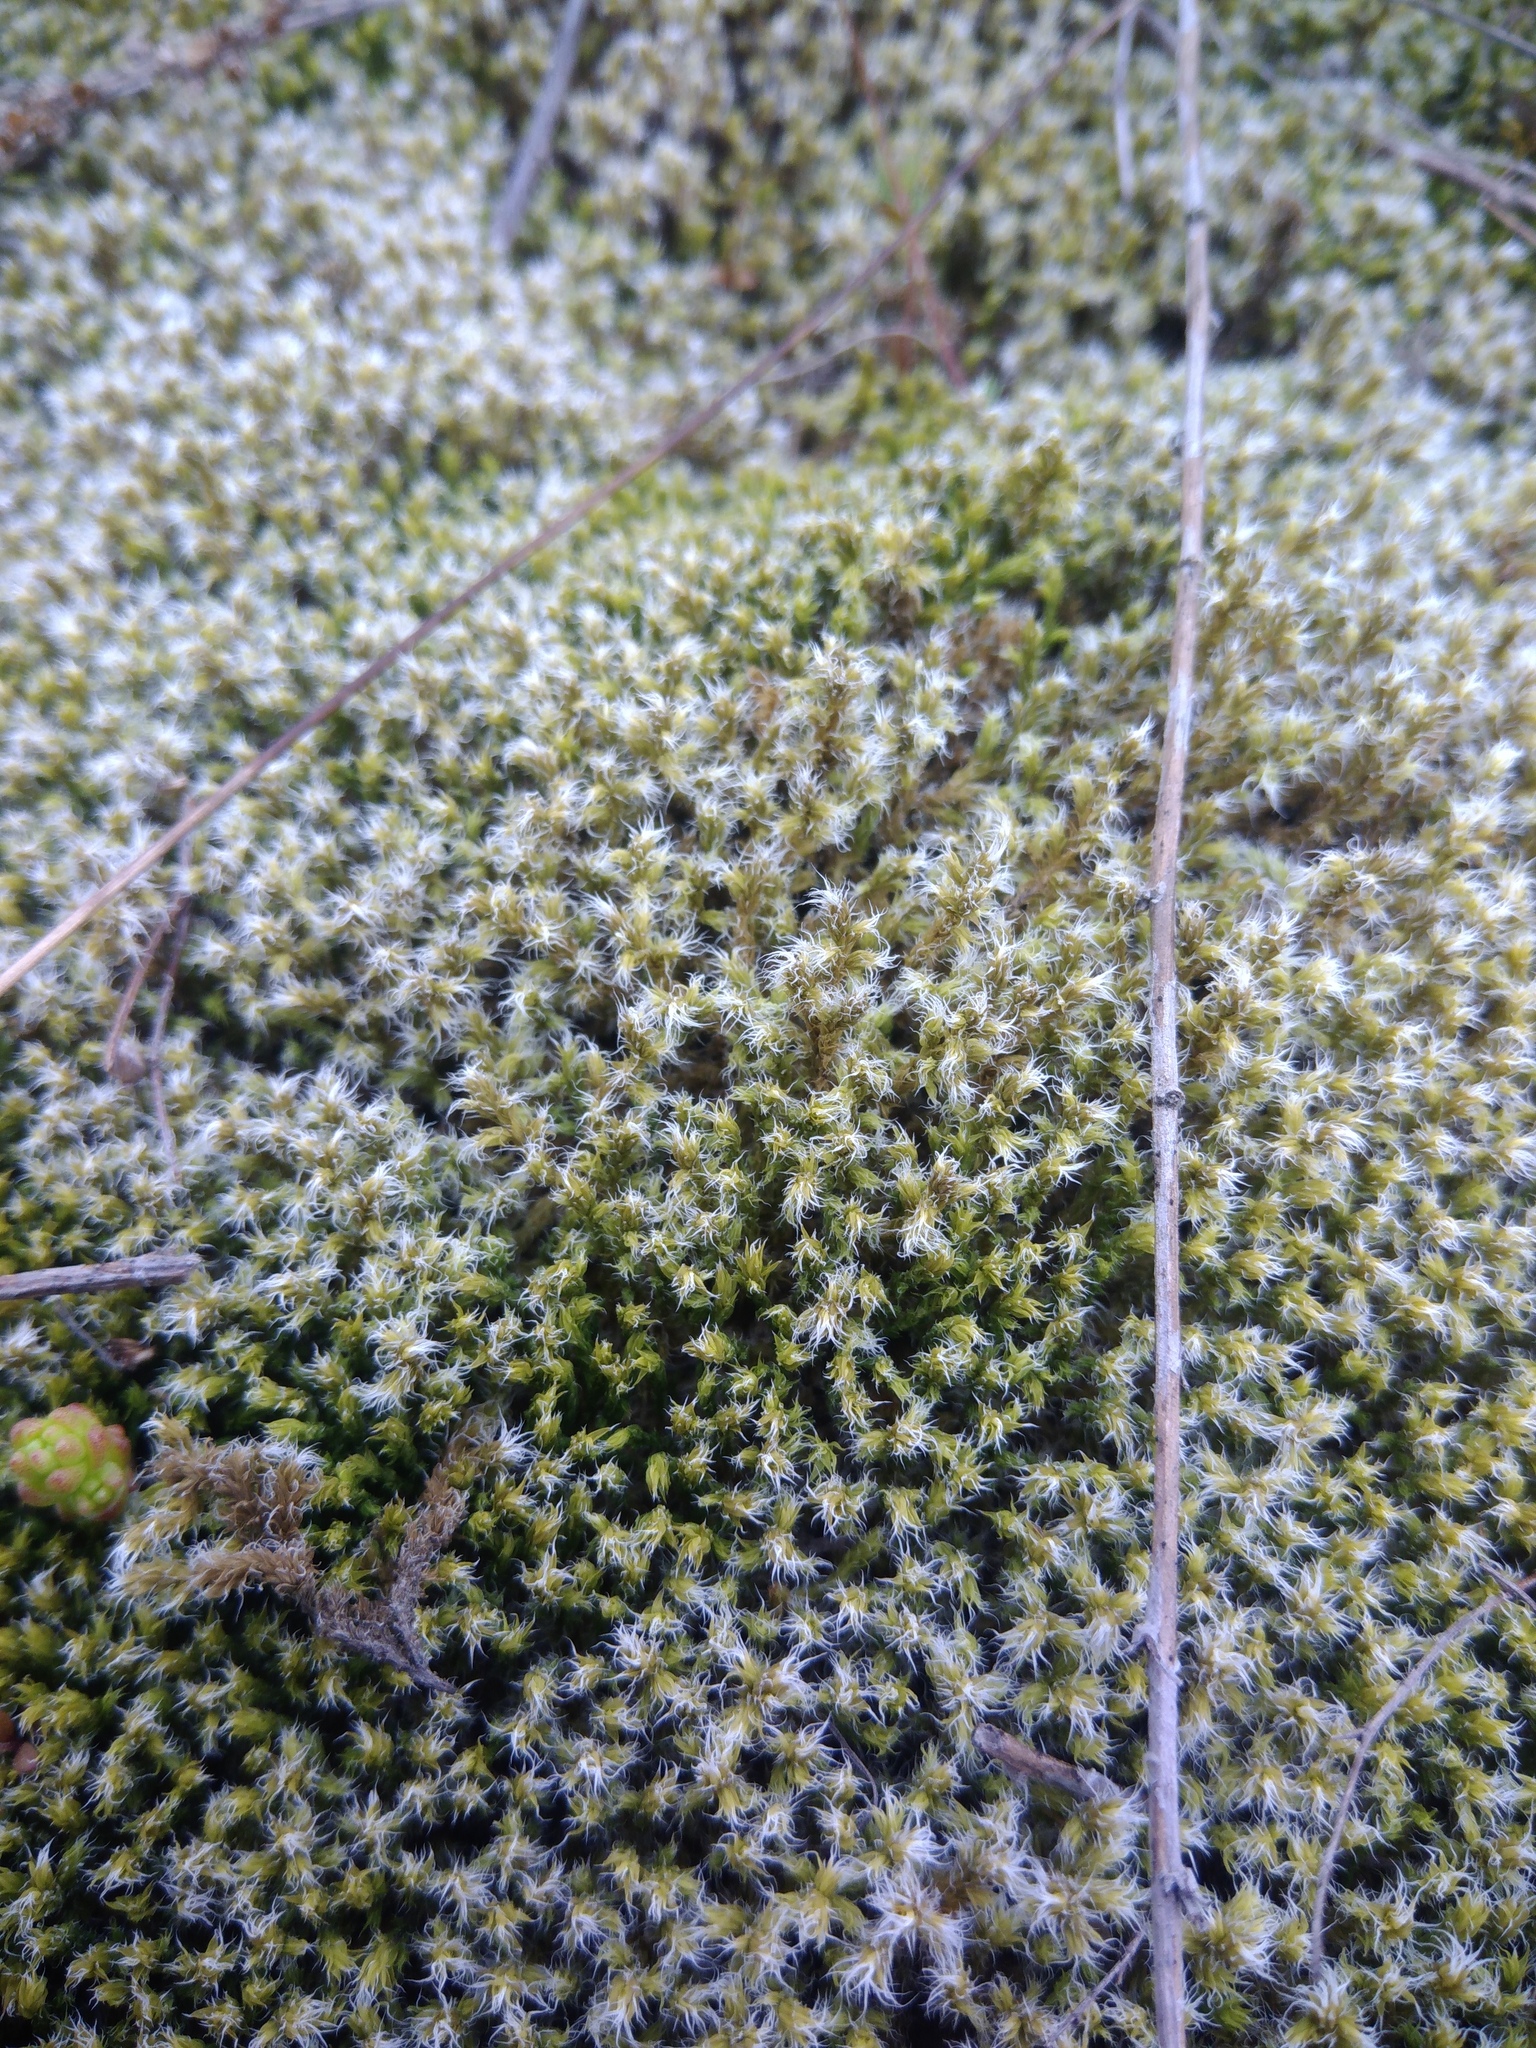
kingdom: Plantae
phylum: Bryophyta
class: Bryopsida
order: Grimmiales
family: Grimmiaceae
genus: Niphotrichum
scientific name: Niphotrichum elongatum
